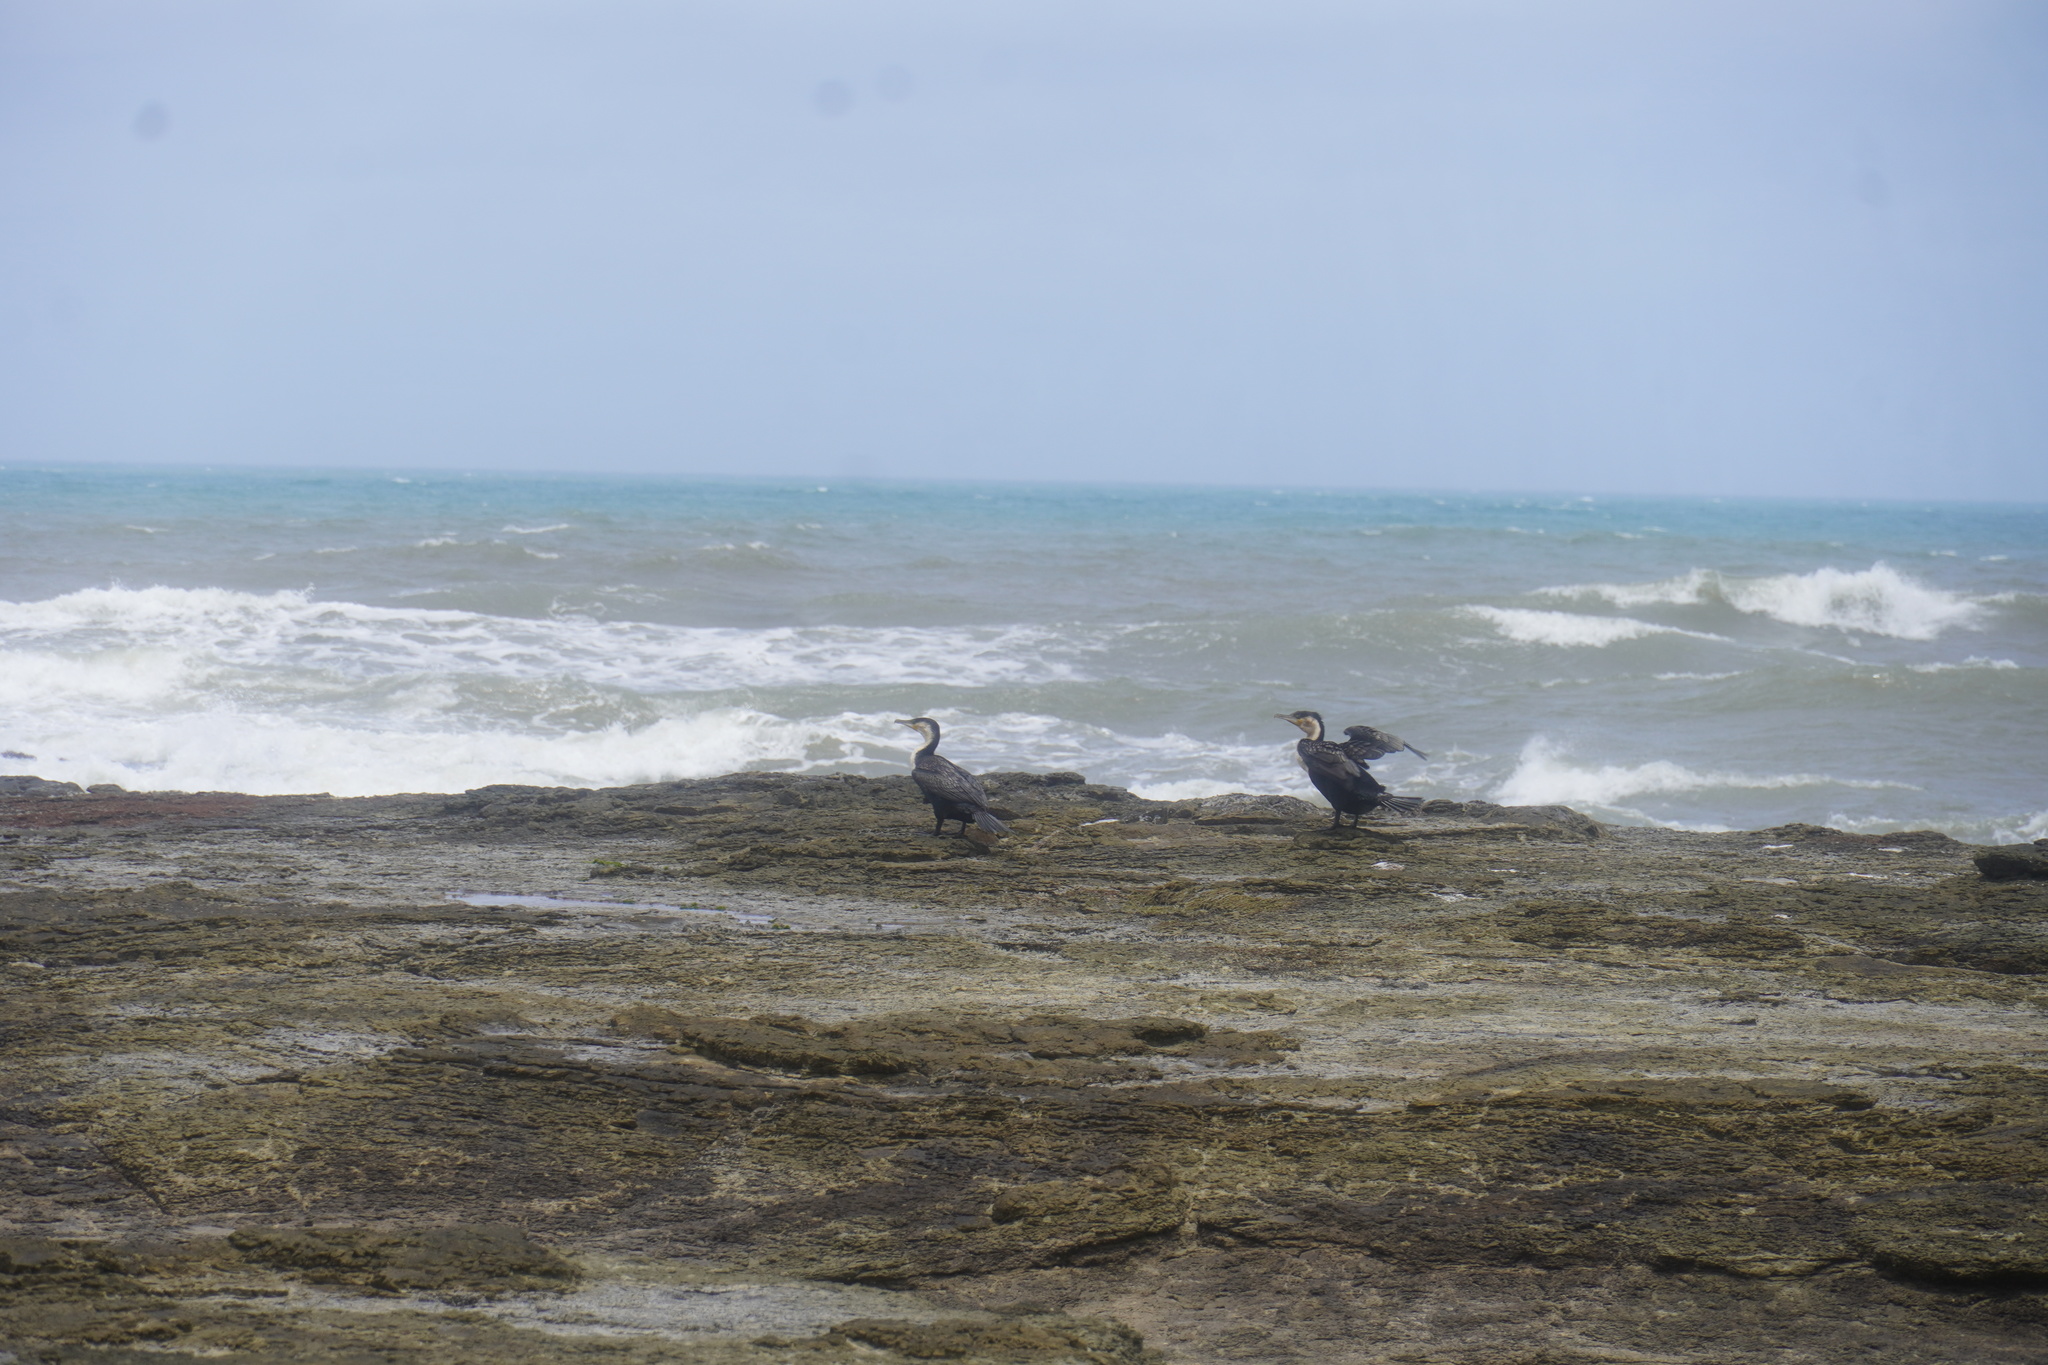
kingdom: Animalia
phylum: Chordata
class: Aves
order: Suliformes
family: Phalacrocoracidae
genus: Phalacrocorax
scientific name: Phalacrocorax carbo
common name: Great cormorant
